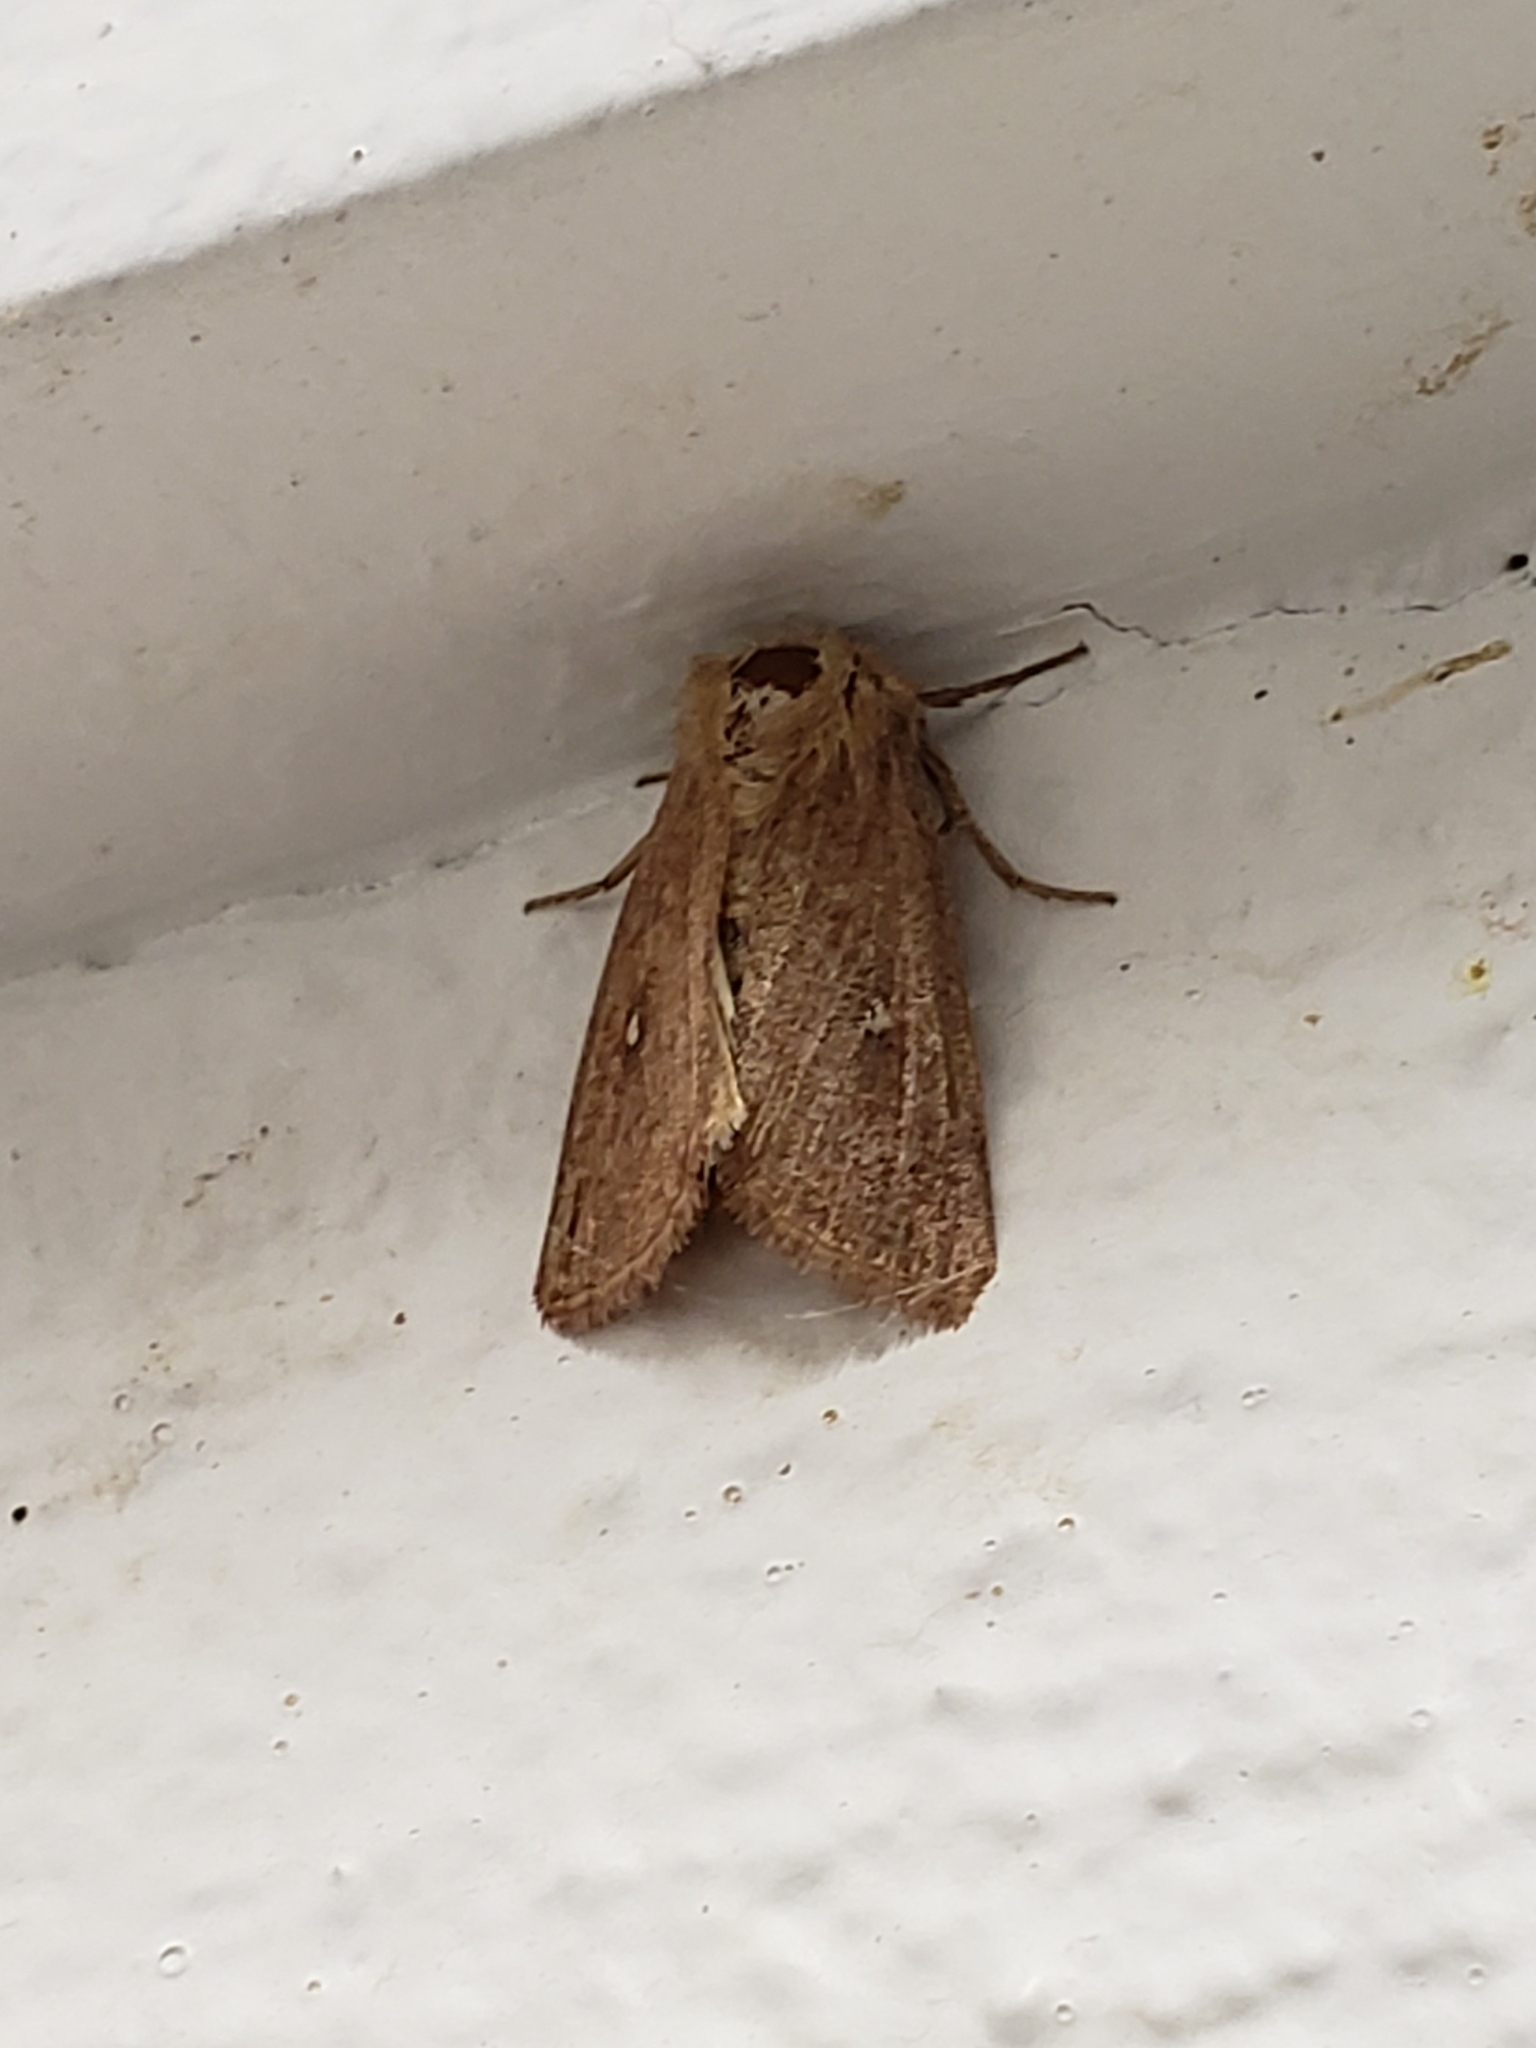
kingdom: Animalia
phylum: Arthropoda
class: Insecta
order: Lepidoptera
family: Noctuidae
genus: Mythimna
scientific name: Mythimna albipuncta
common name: White-point
